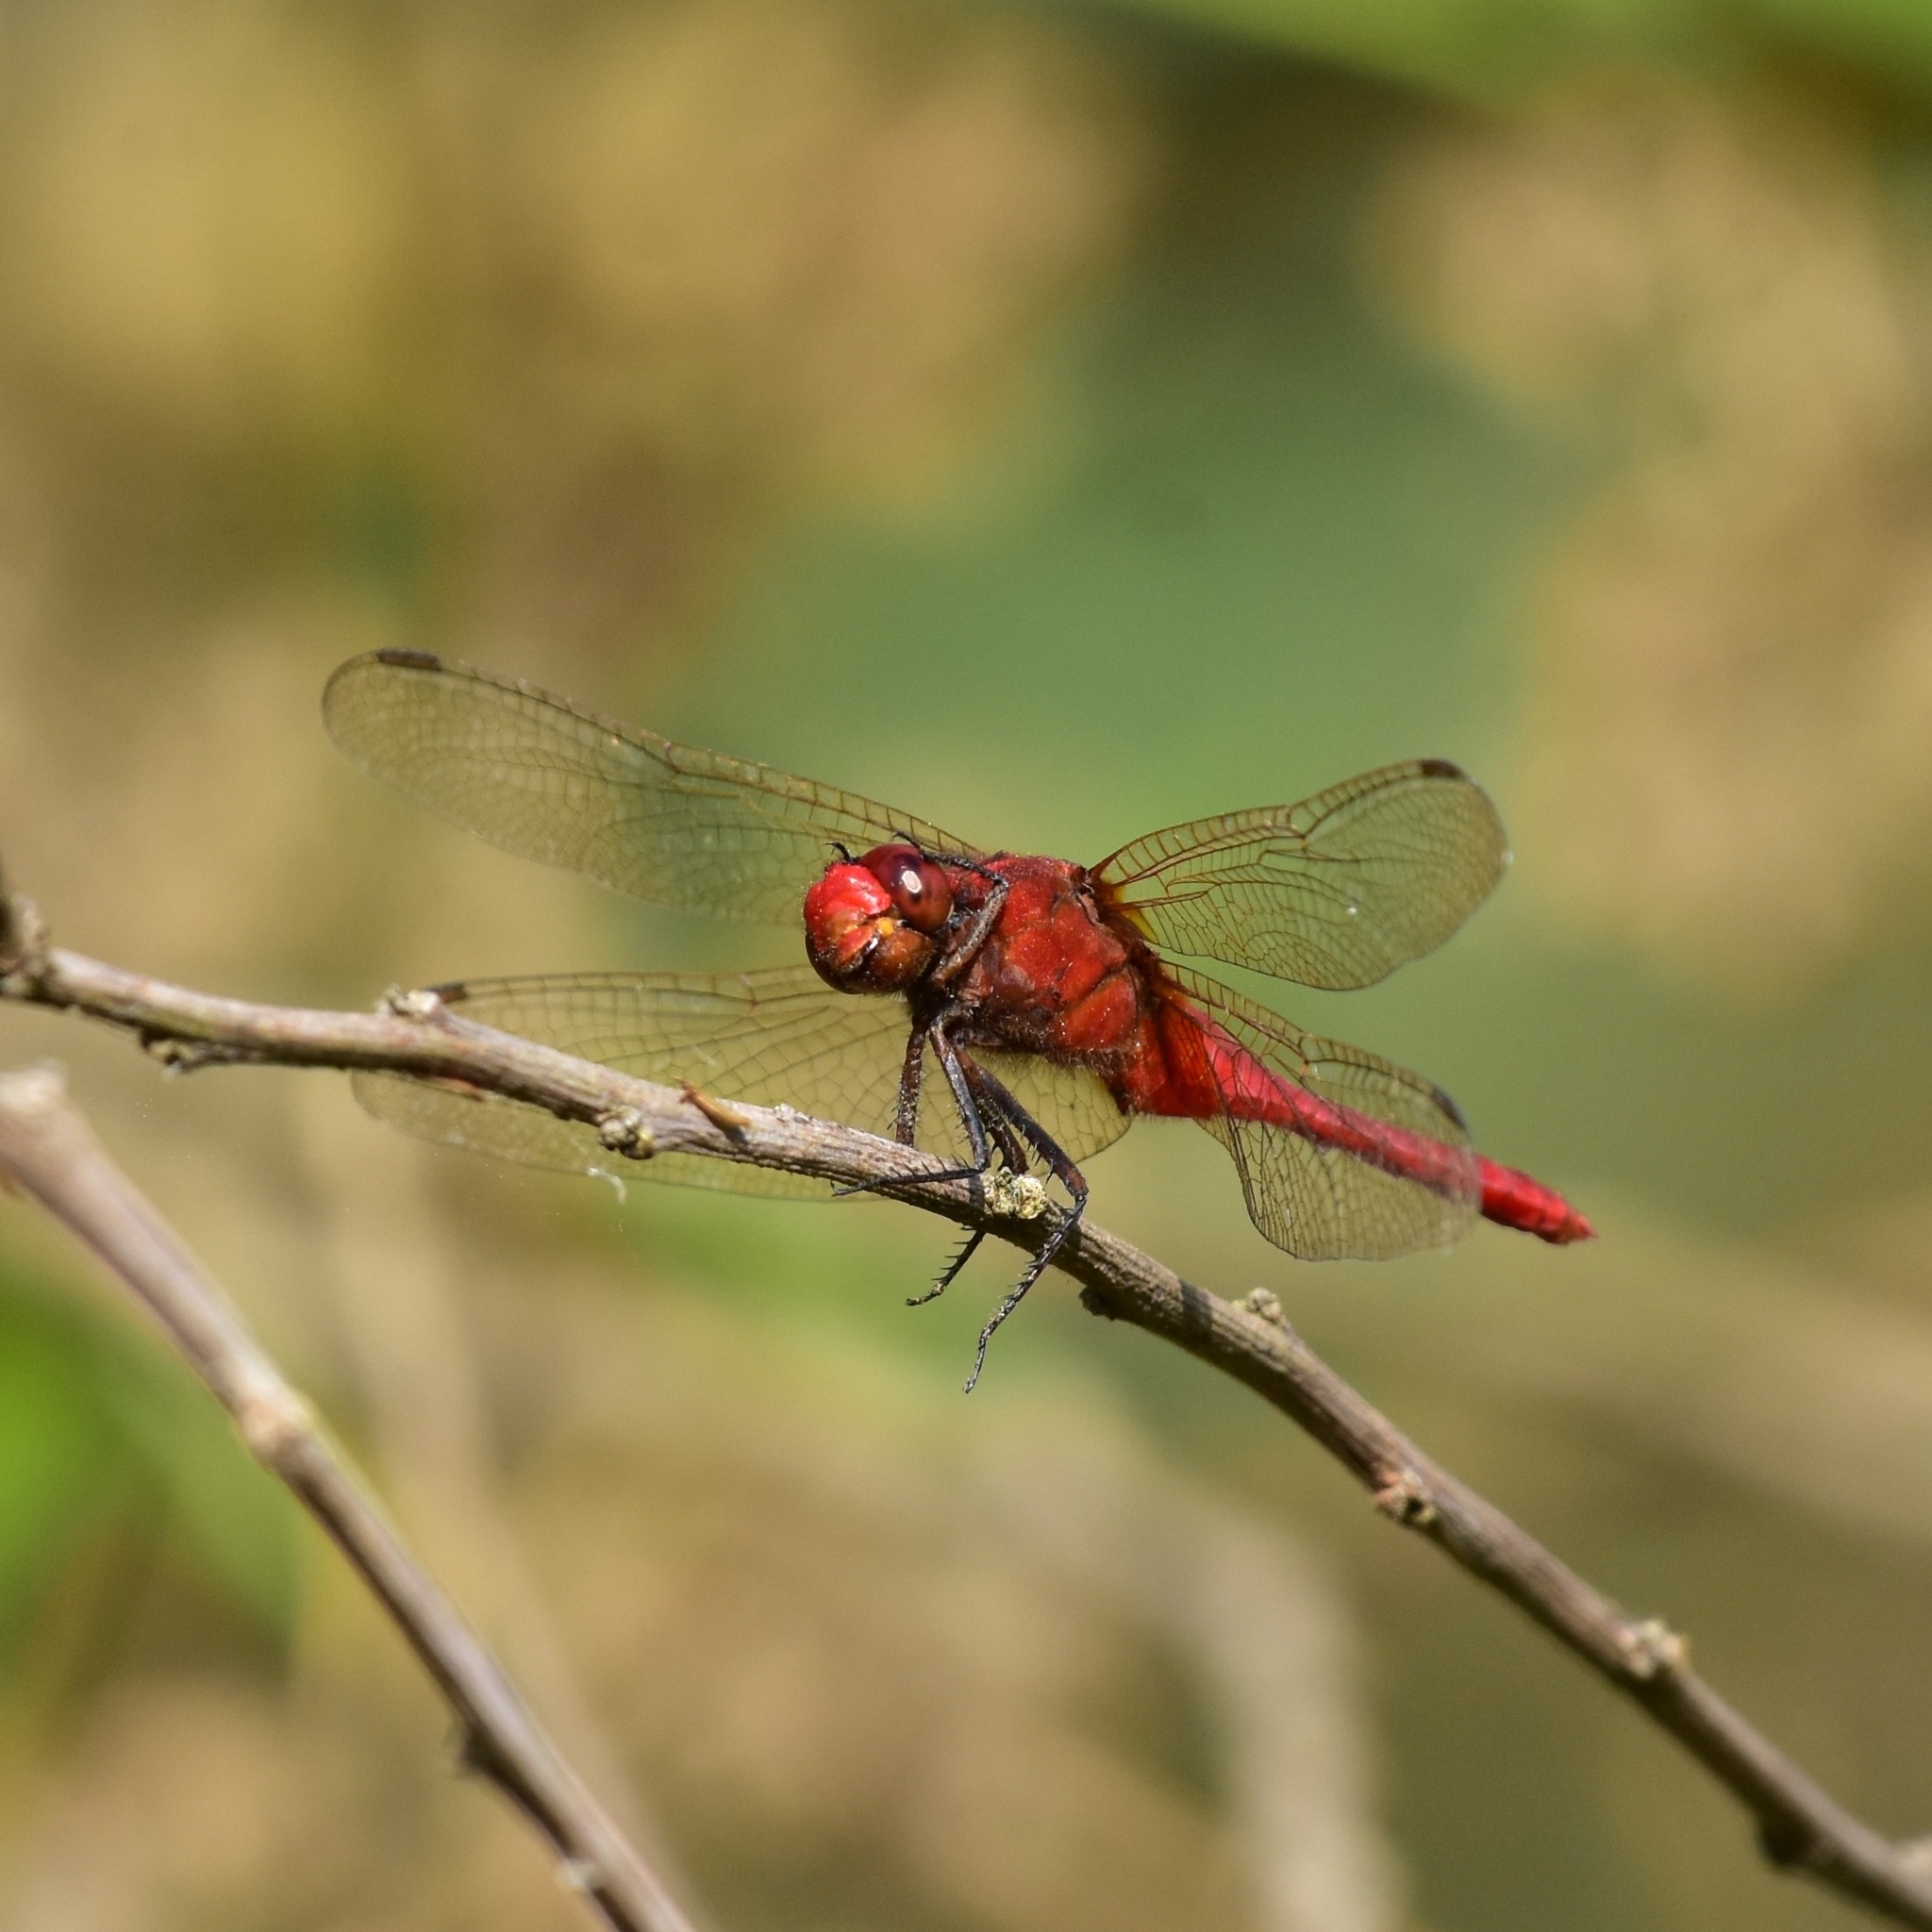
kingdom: Animalia
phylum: Arthropoda
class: Insecta
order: Odonata
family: Libellulidae
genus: Rhodothemis
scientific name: Rhodothemis rufa
